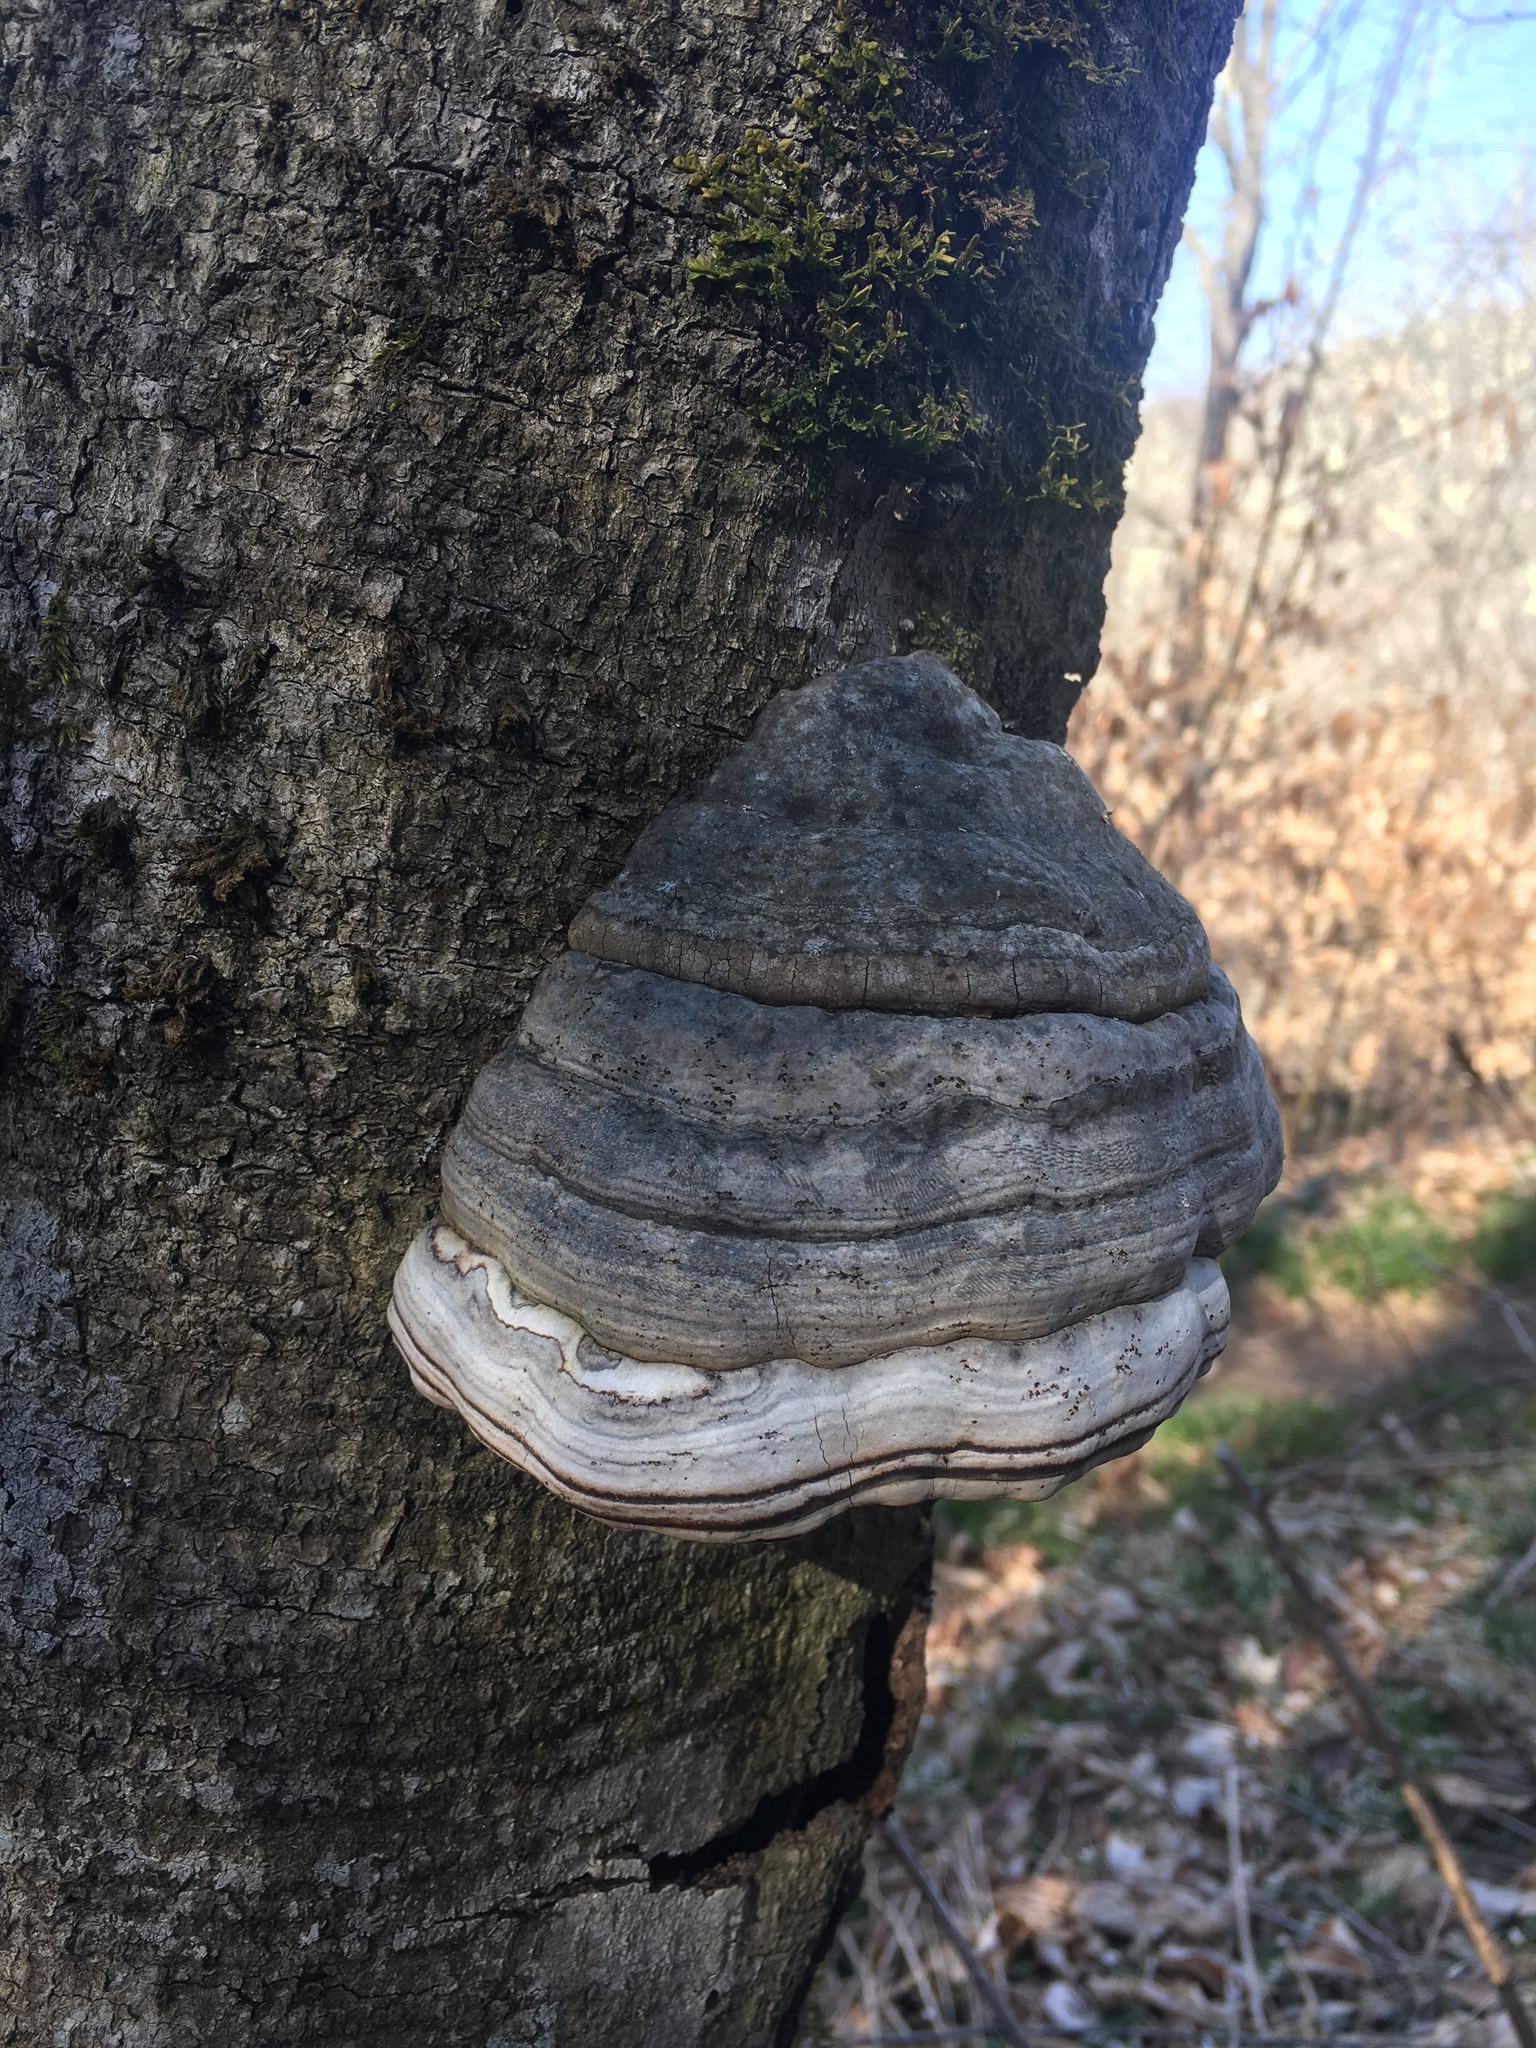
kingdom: Fungi
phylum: Basidiomycota
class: Agaricomycetes
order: Polyporales
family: Polyporaceae
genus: Fomes
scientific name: Fomes fomentarius
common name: Hoof fungus
